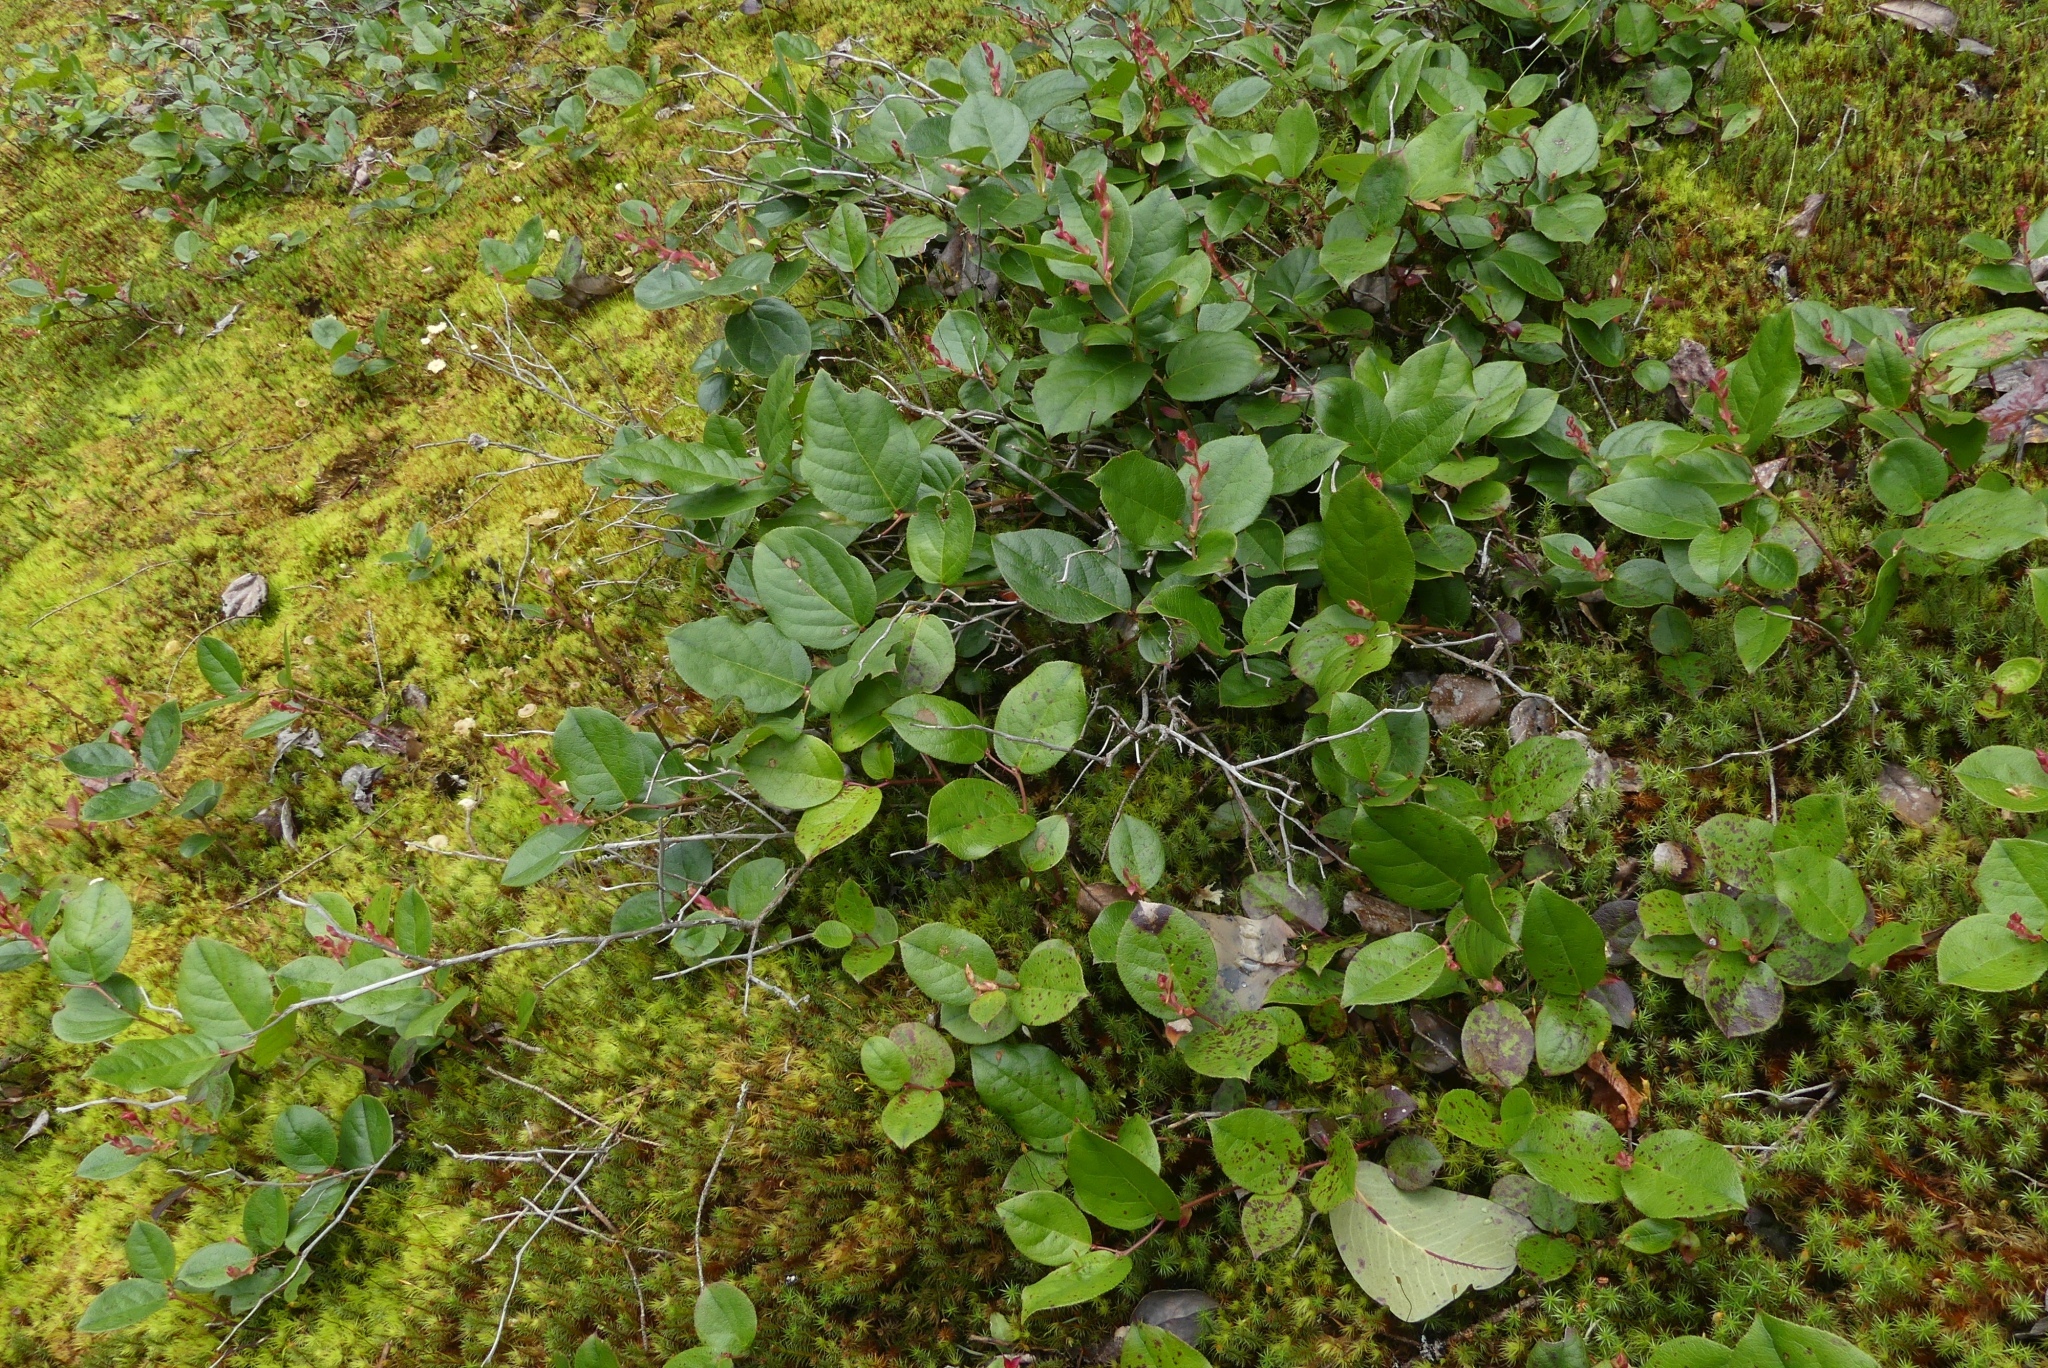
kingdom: Plantae
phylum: Tracheophyta
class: Magnoliopsida
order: Ericales
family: Ericaceae
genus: Gaultheria
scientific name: Gaultheria shallon
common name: Shallon
